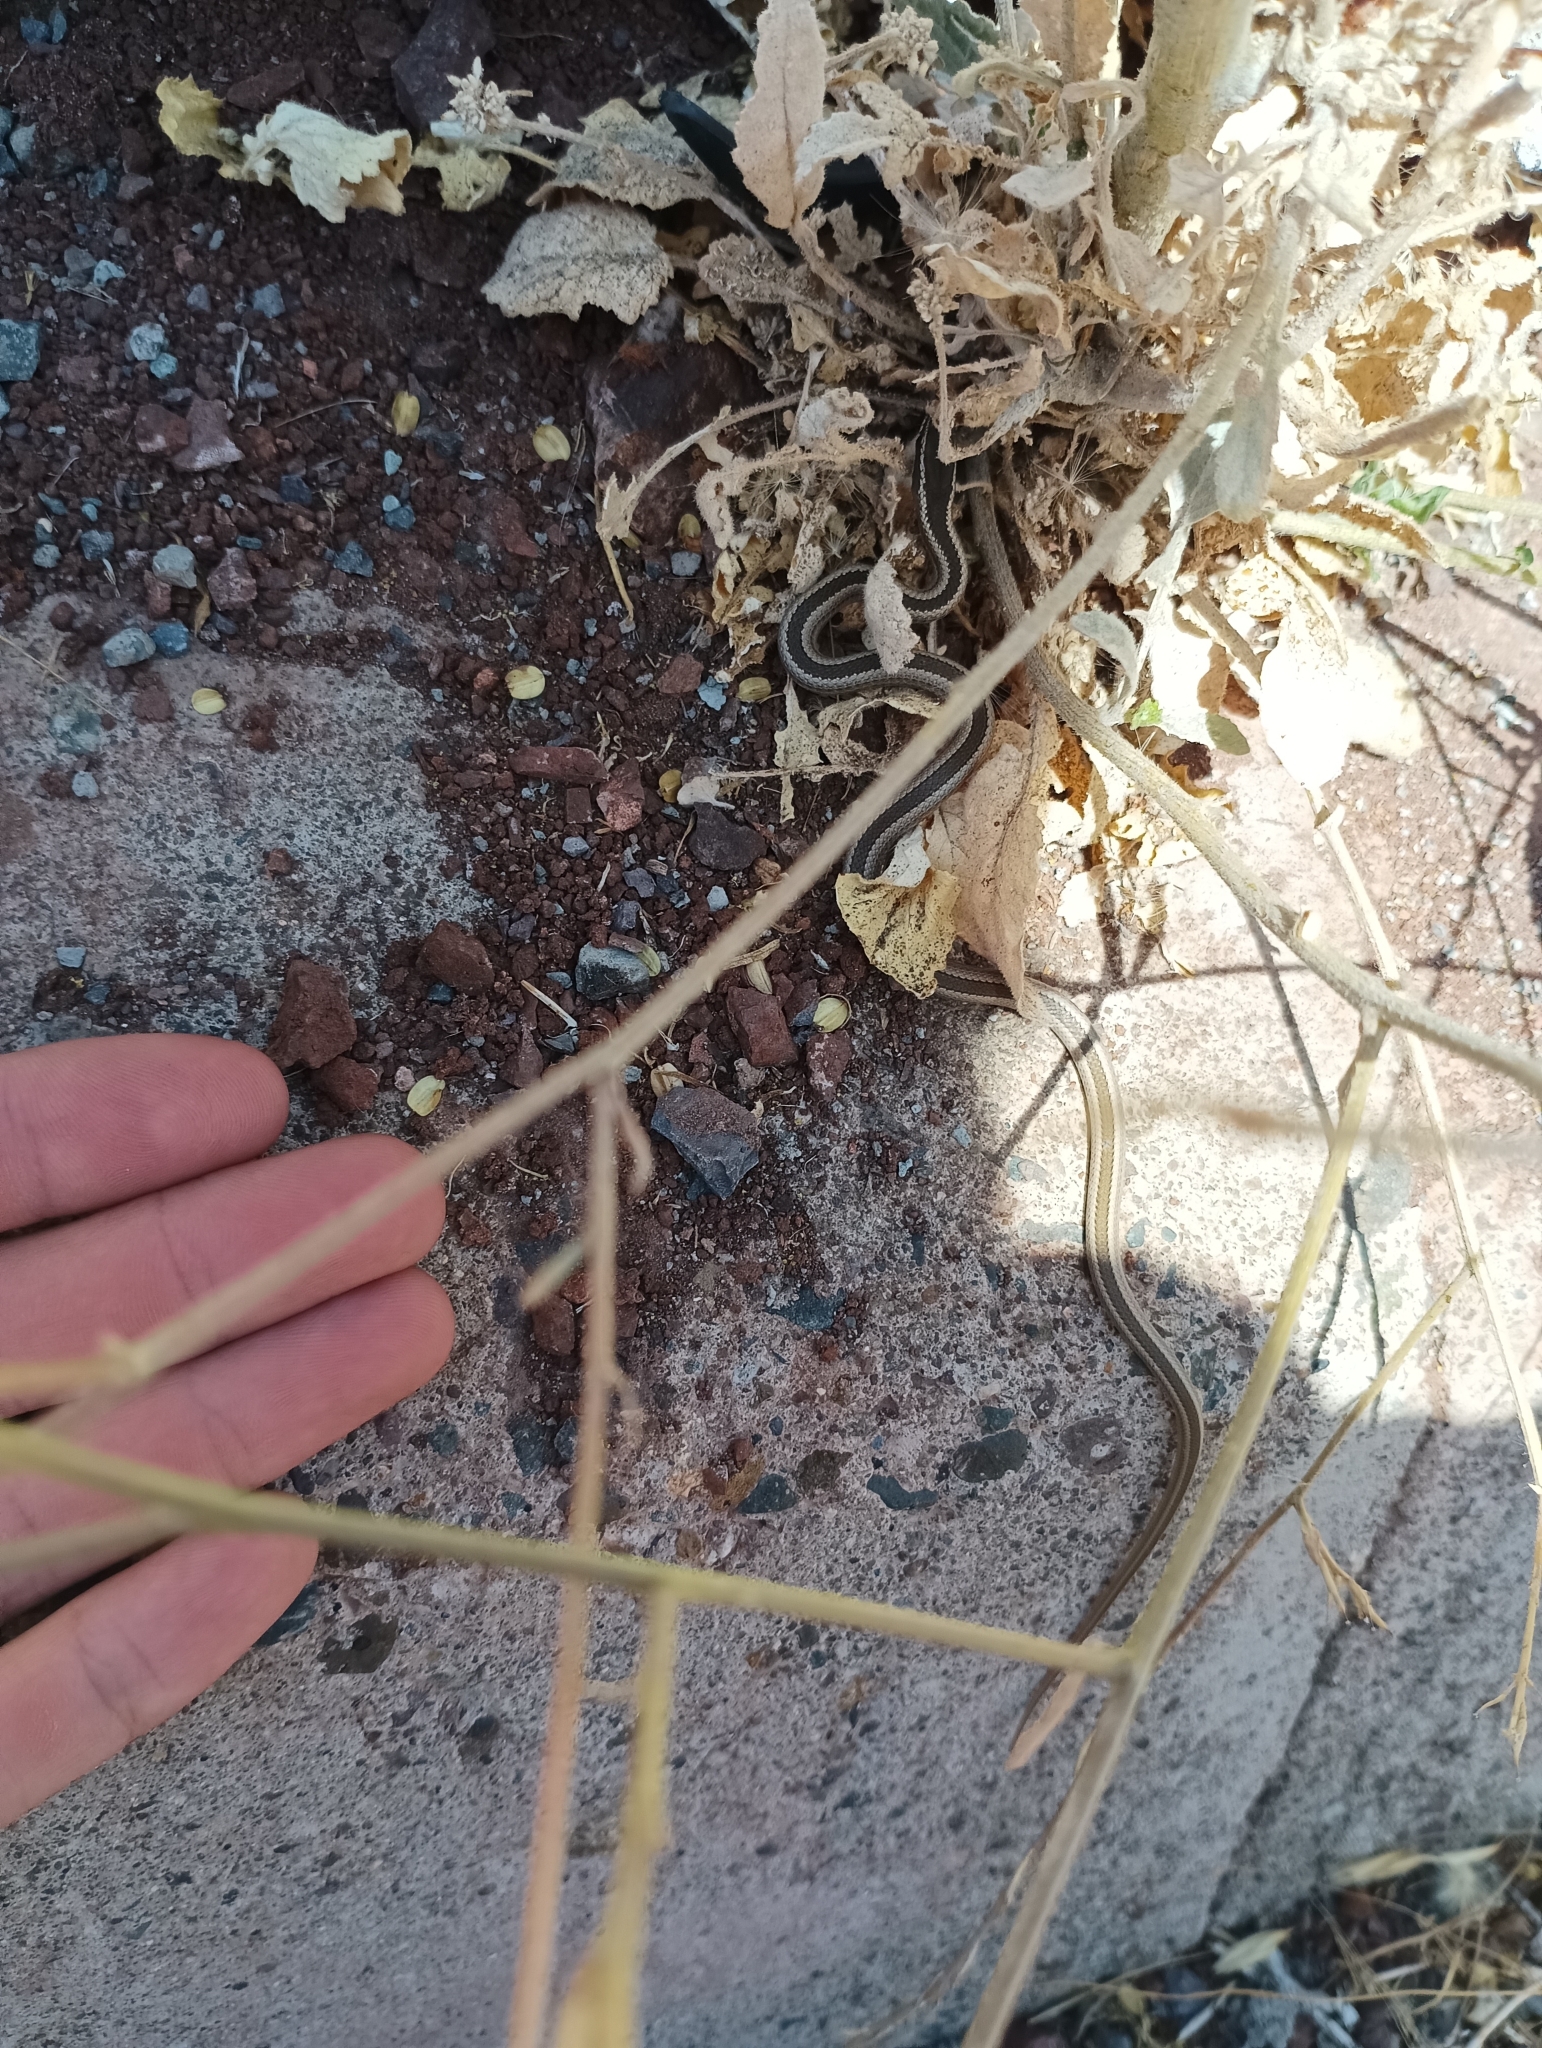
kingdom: Animalia
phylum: Chordata
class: Squamata
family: Colubridae
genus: Philodryas
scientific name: Philodryas chamissonis
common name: Chilean green racer
